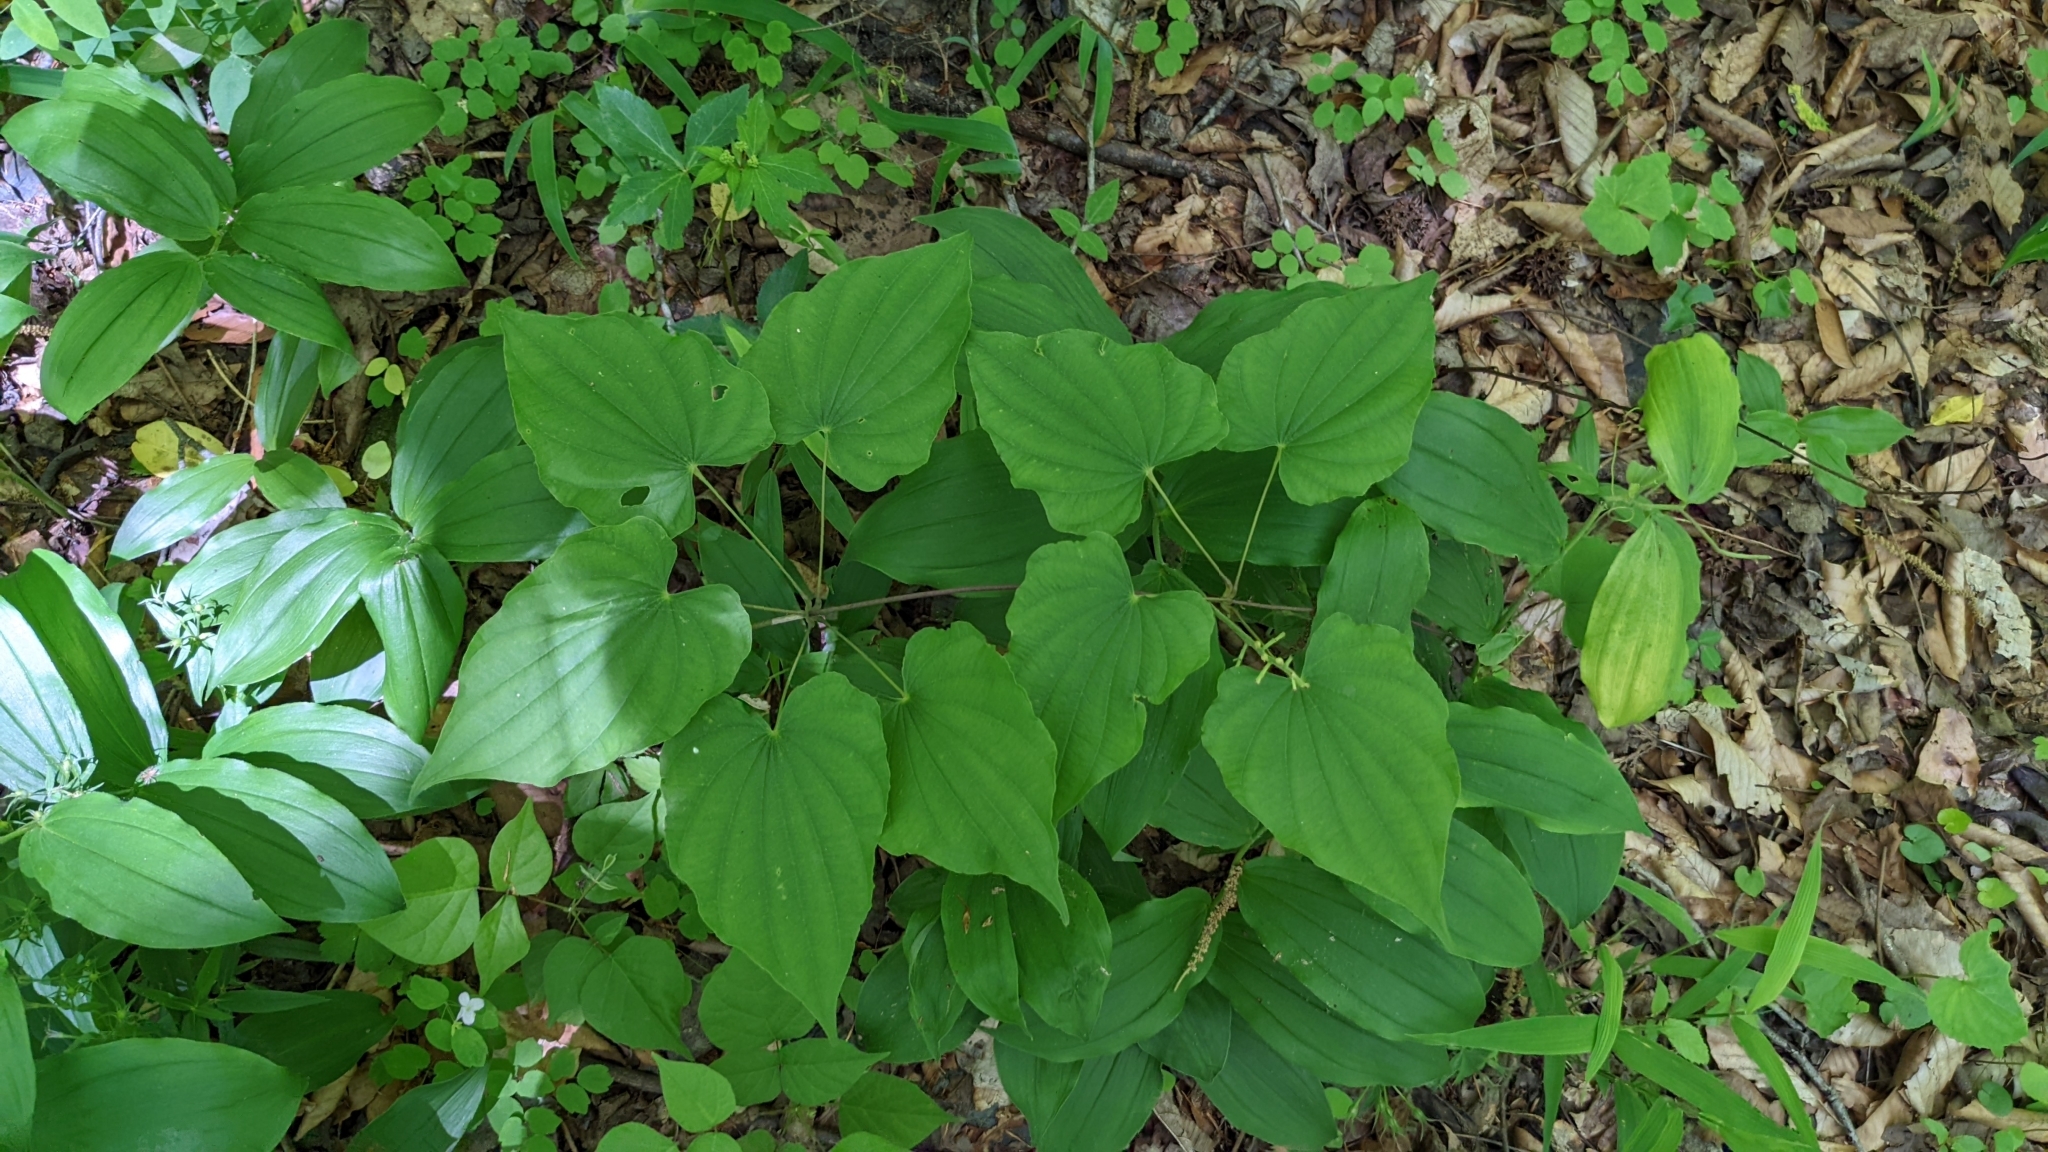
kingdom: Plantae
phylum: Tracheophyta
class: Liliopsida
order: Dioscoreales
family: Dioscoreaceae
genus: Dioscorea
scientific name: Dioscorea villosa
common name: Wild yam
